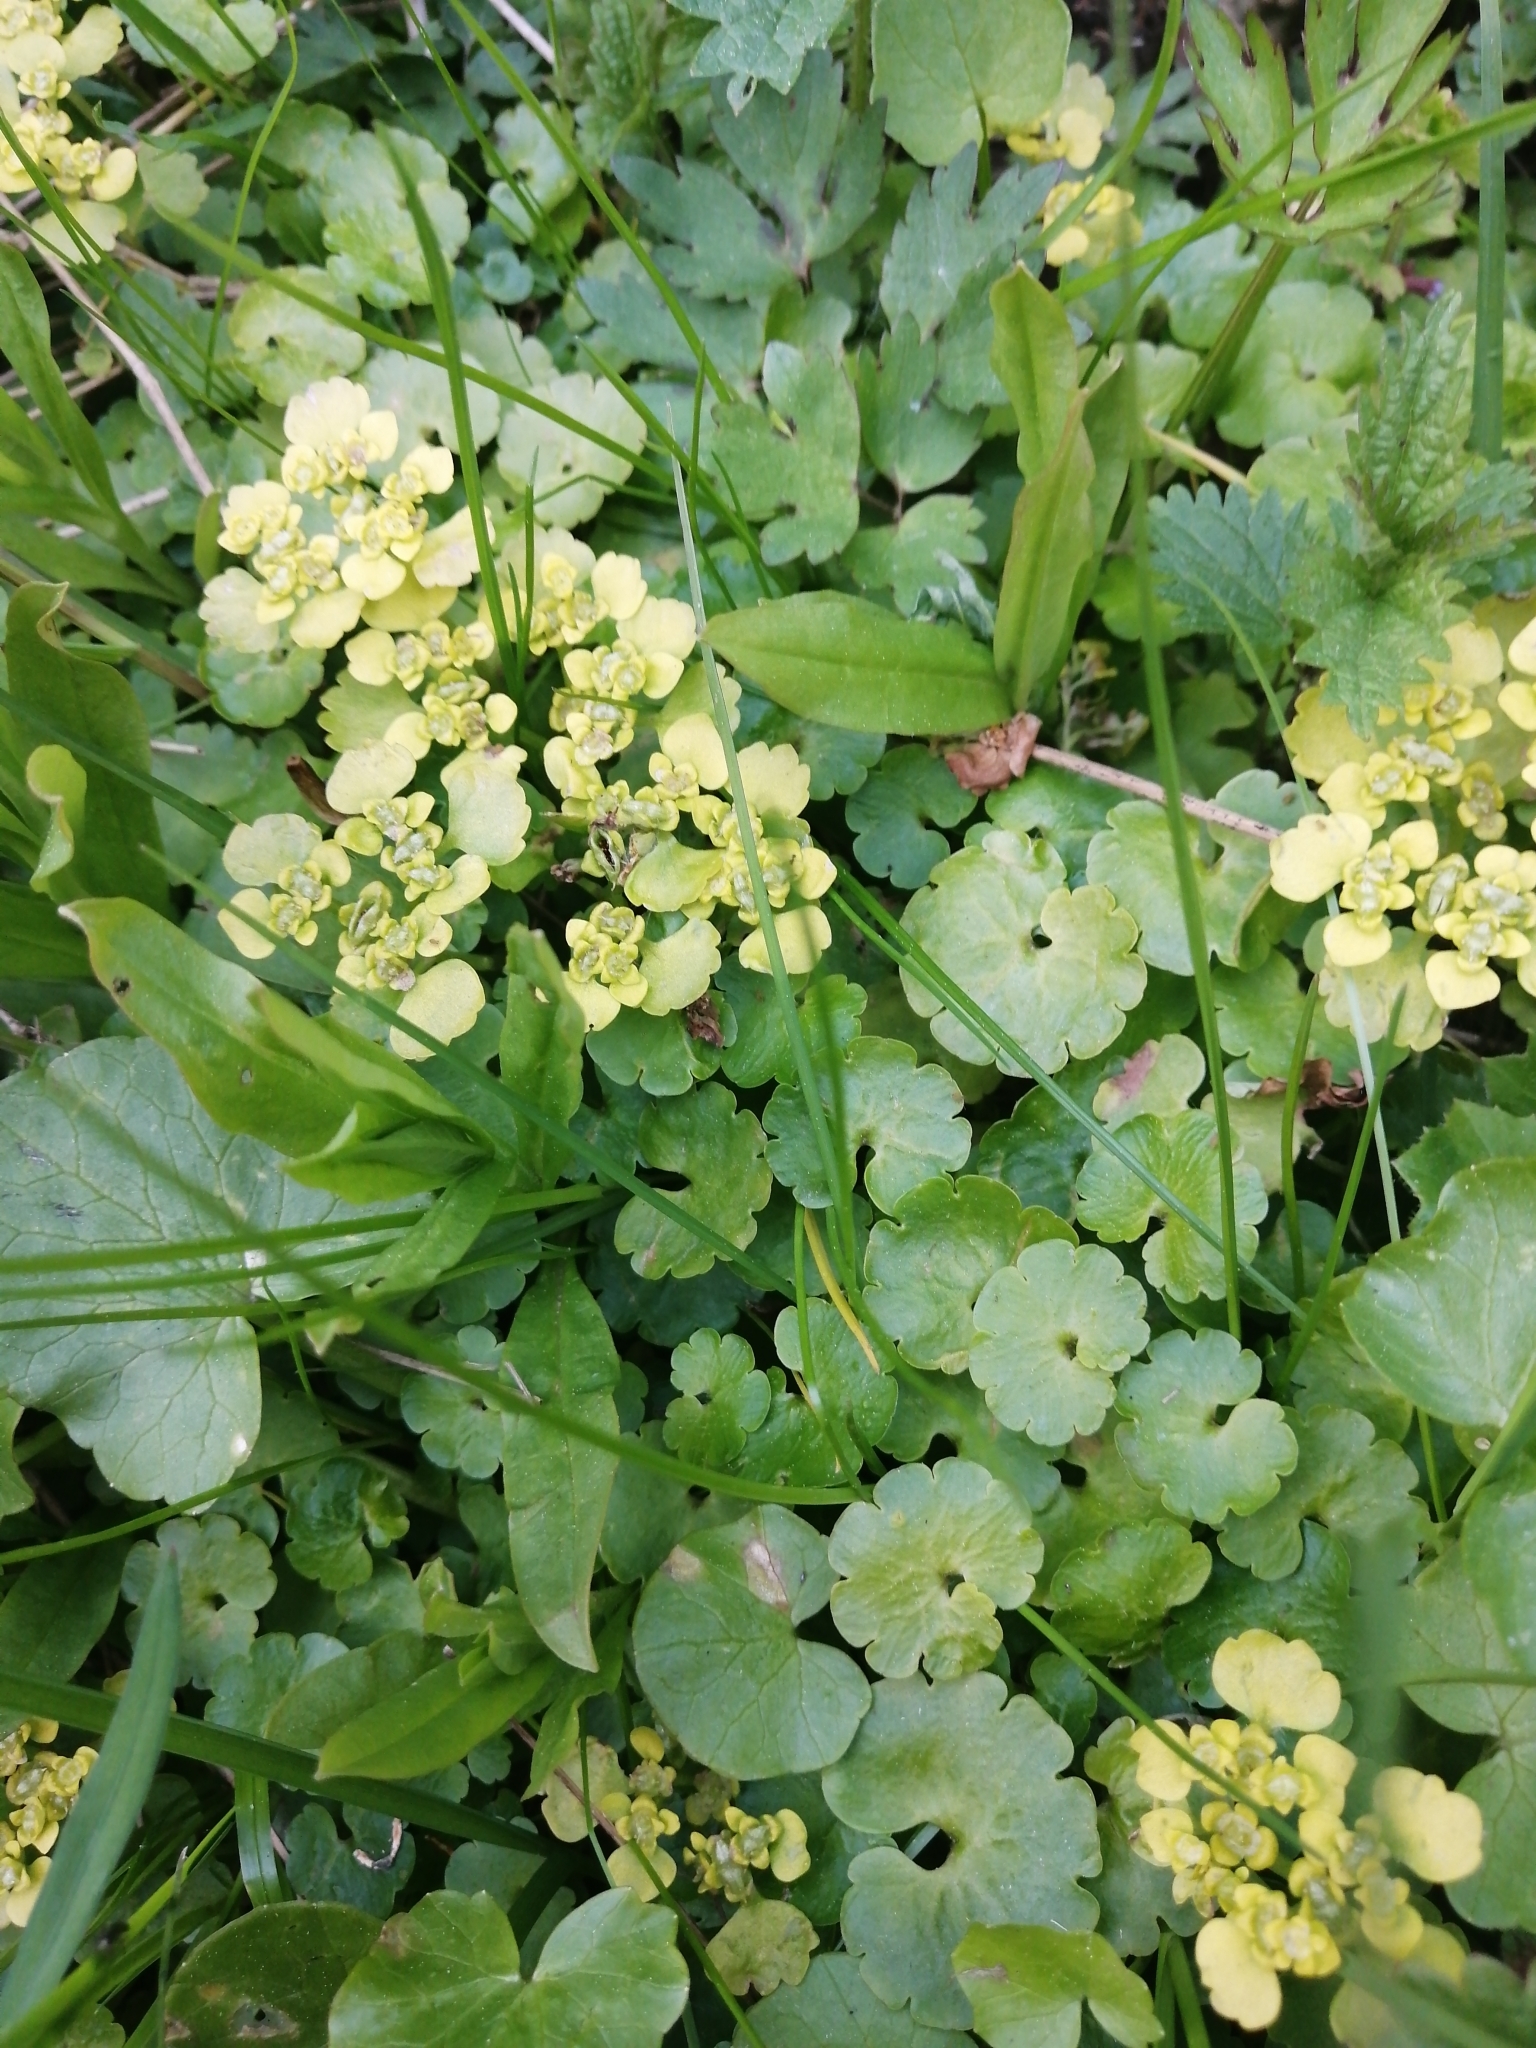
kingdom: Plantae
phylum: Tracheophyta
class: Magnoliopsida
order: Saxifragales
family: Saxifragaceae
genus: Chrysosplenium
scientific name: Chrysosplenium alternifolium
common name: Alternate-leaved golden-saxifrage
